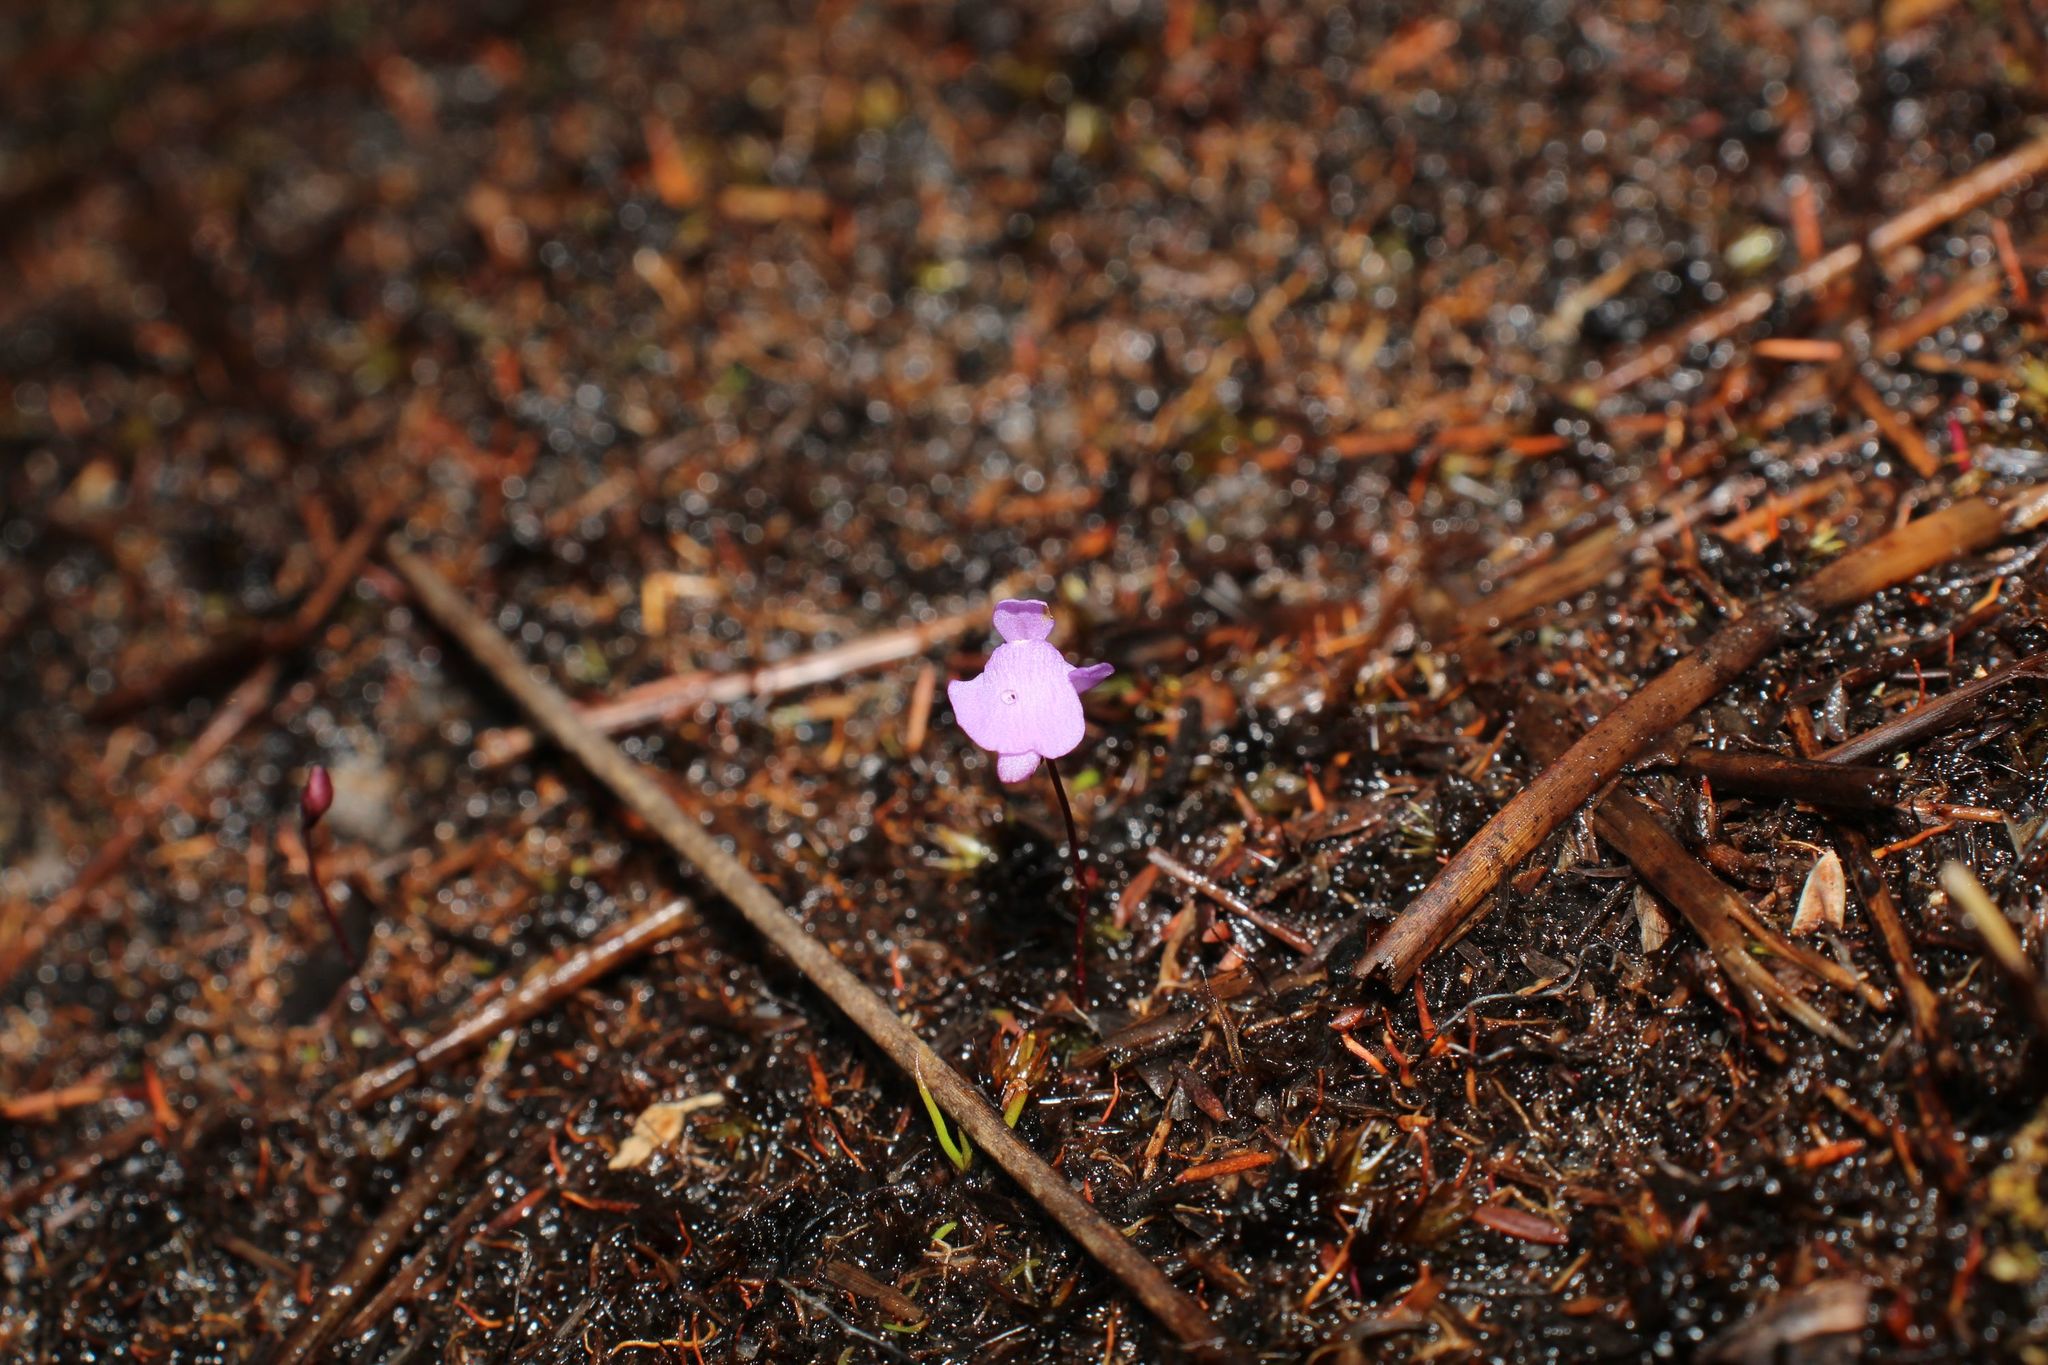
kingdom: Plantae
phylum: Tracheophyta
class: Magnoliopsida
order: Lamiales
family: Lentibulariaceae
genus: Utricularia
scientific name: Utricularia simplex
